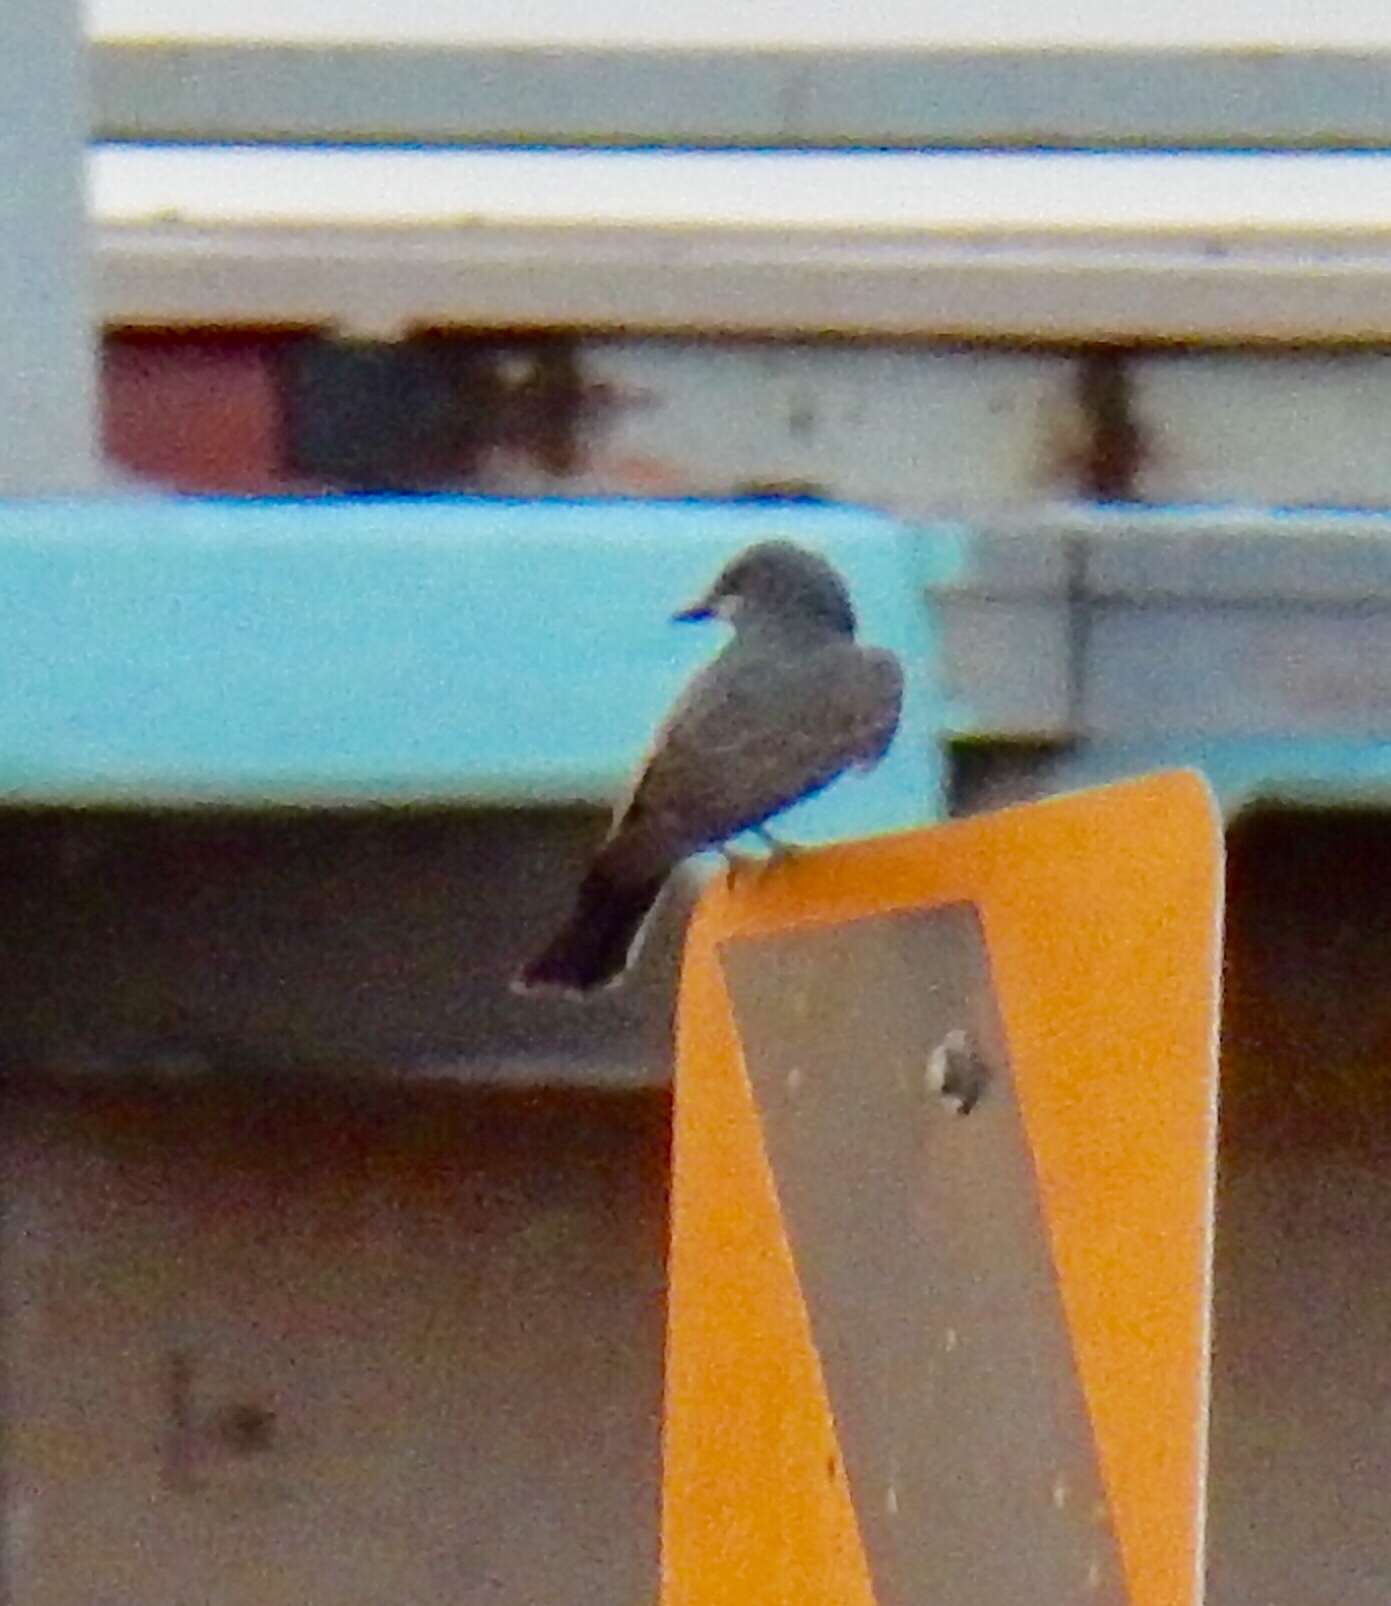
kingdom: Animalia
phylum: Chordata
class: Aves
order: Passeriformes
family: Tyrannidae
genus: Tyrannus
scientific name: Tyrannus vociferans
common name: Cassin's kingbird
